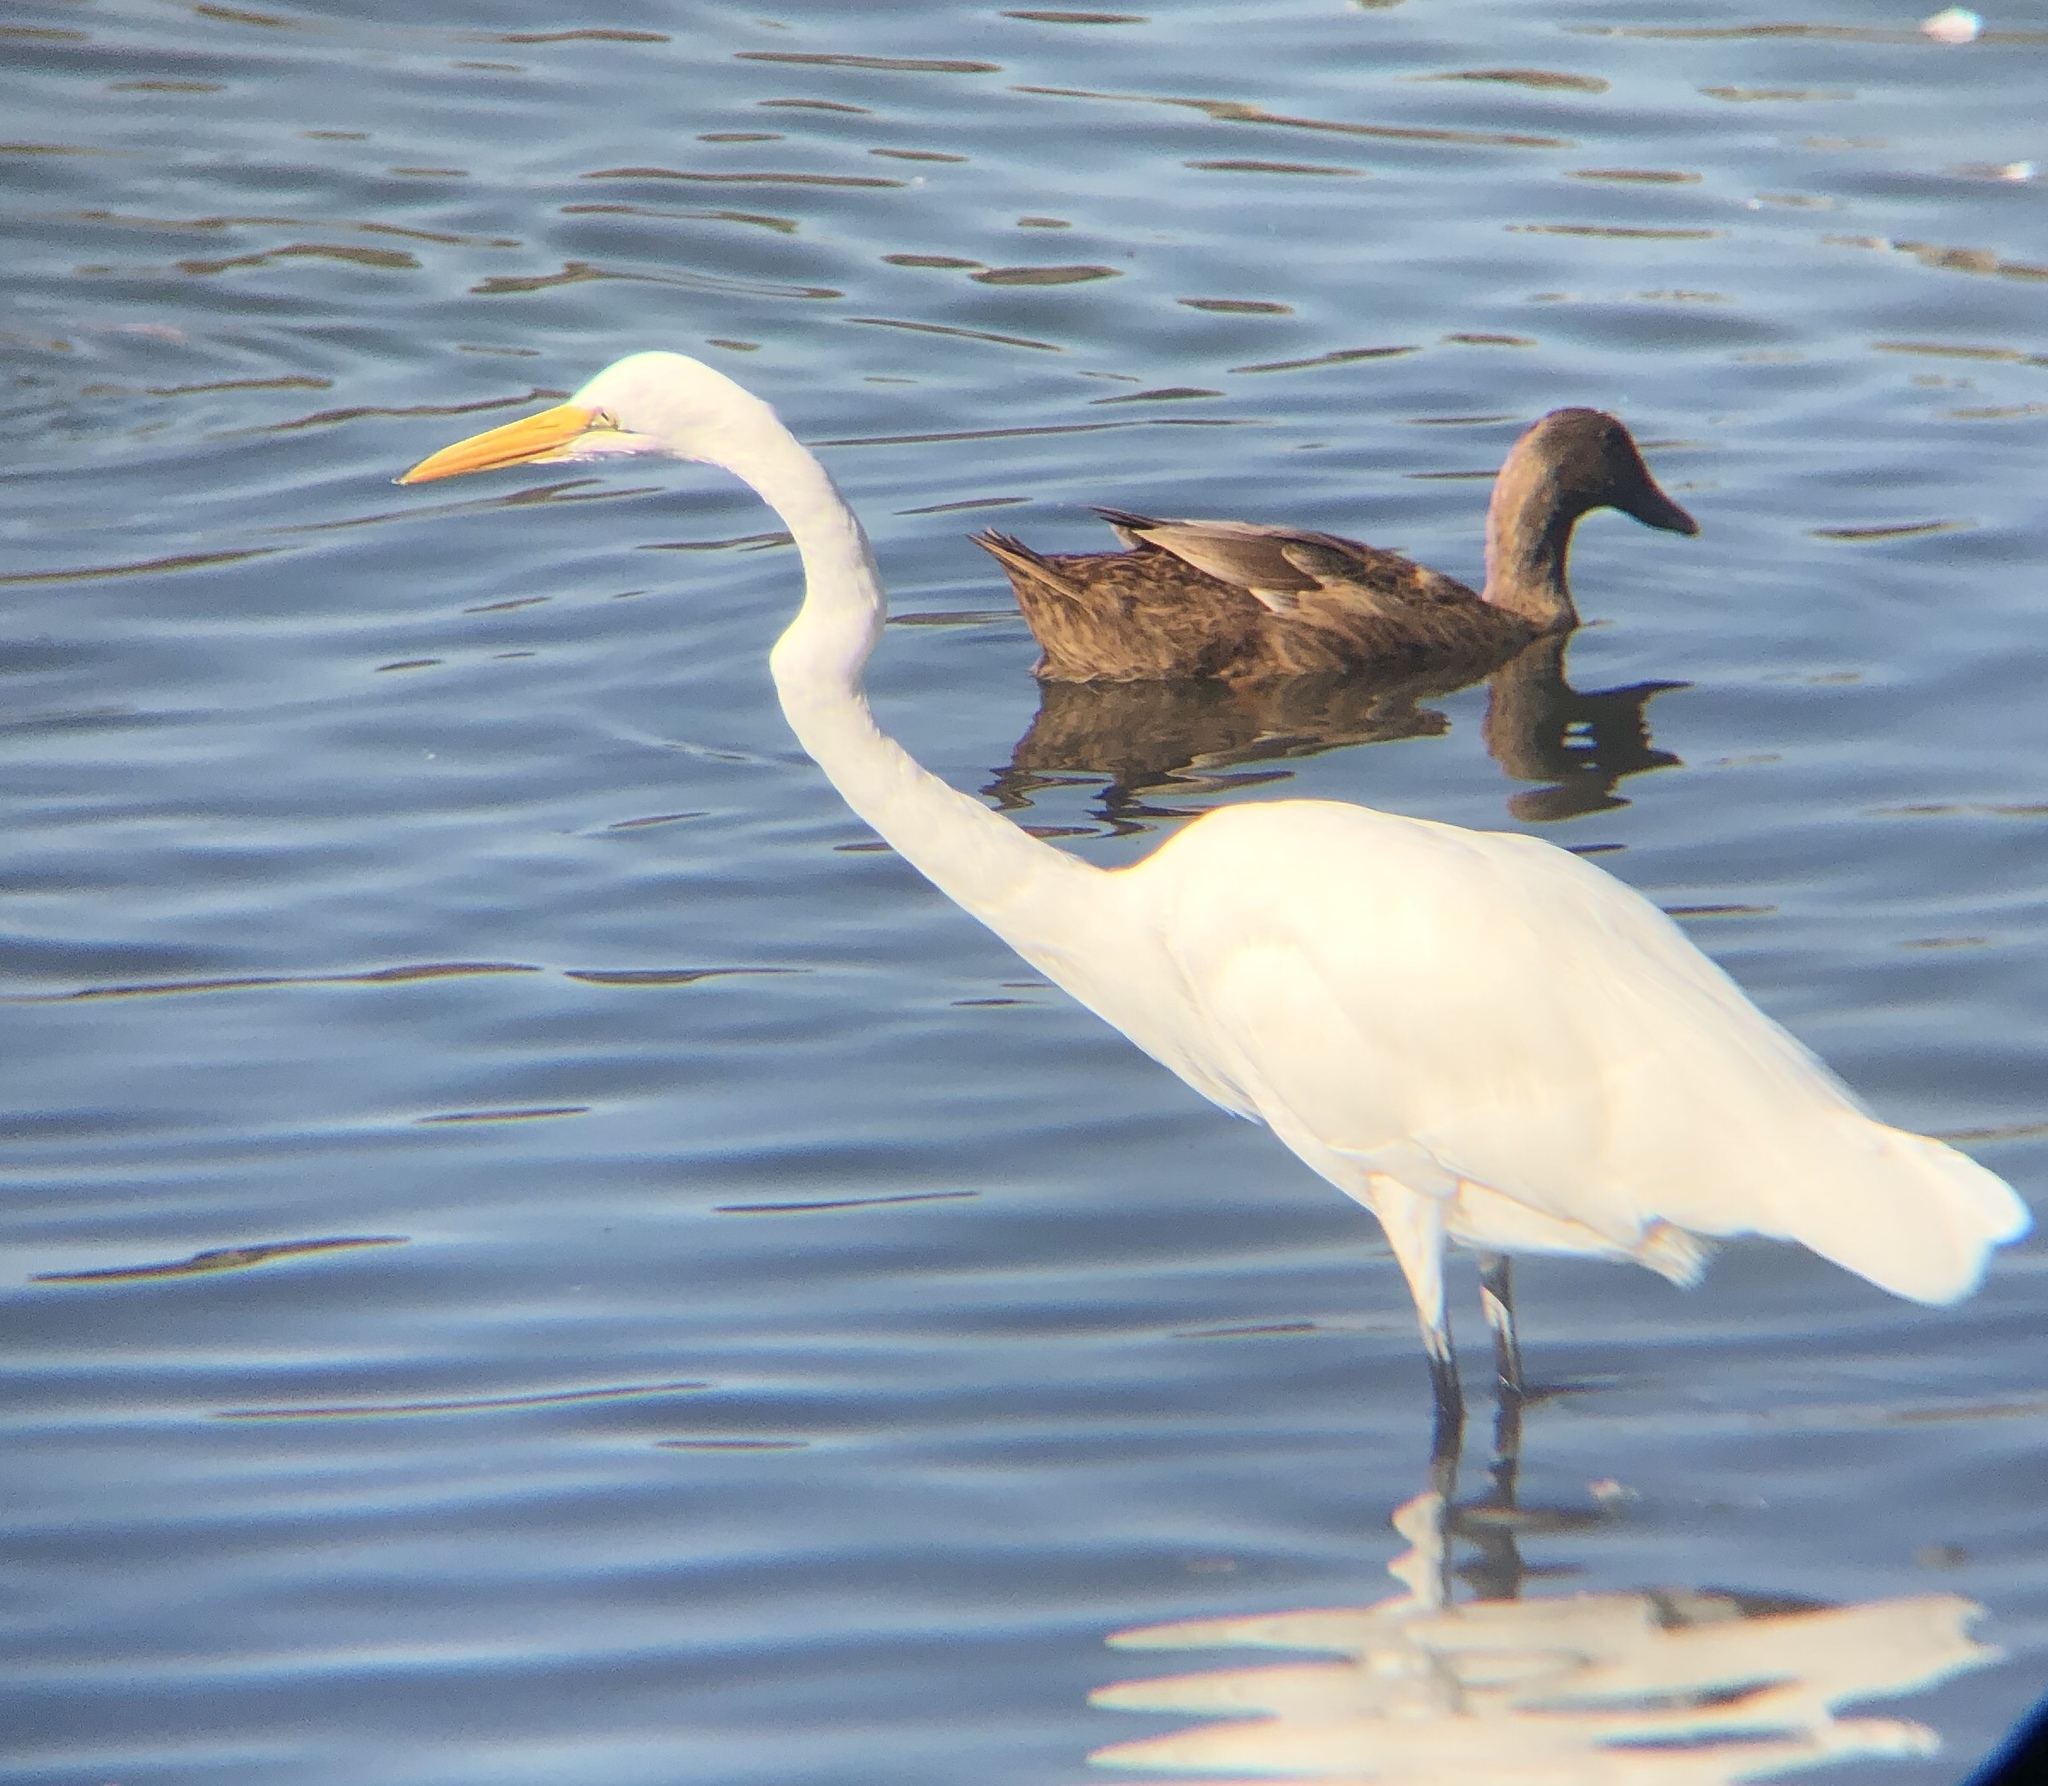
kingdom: Animalia
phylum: Chordata
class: Aves
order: Pelecaniformes
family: Ardeidae
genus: Ardea
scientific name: Ardea alba
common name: Great egret
